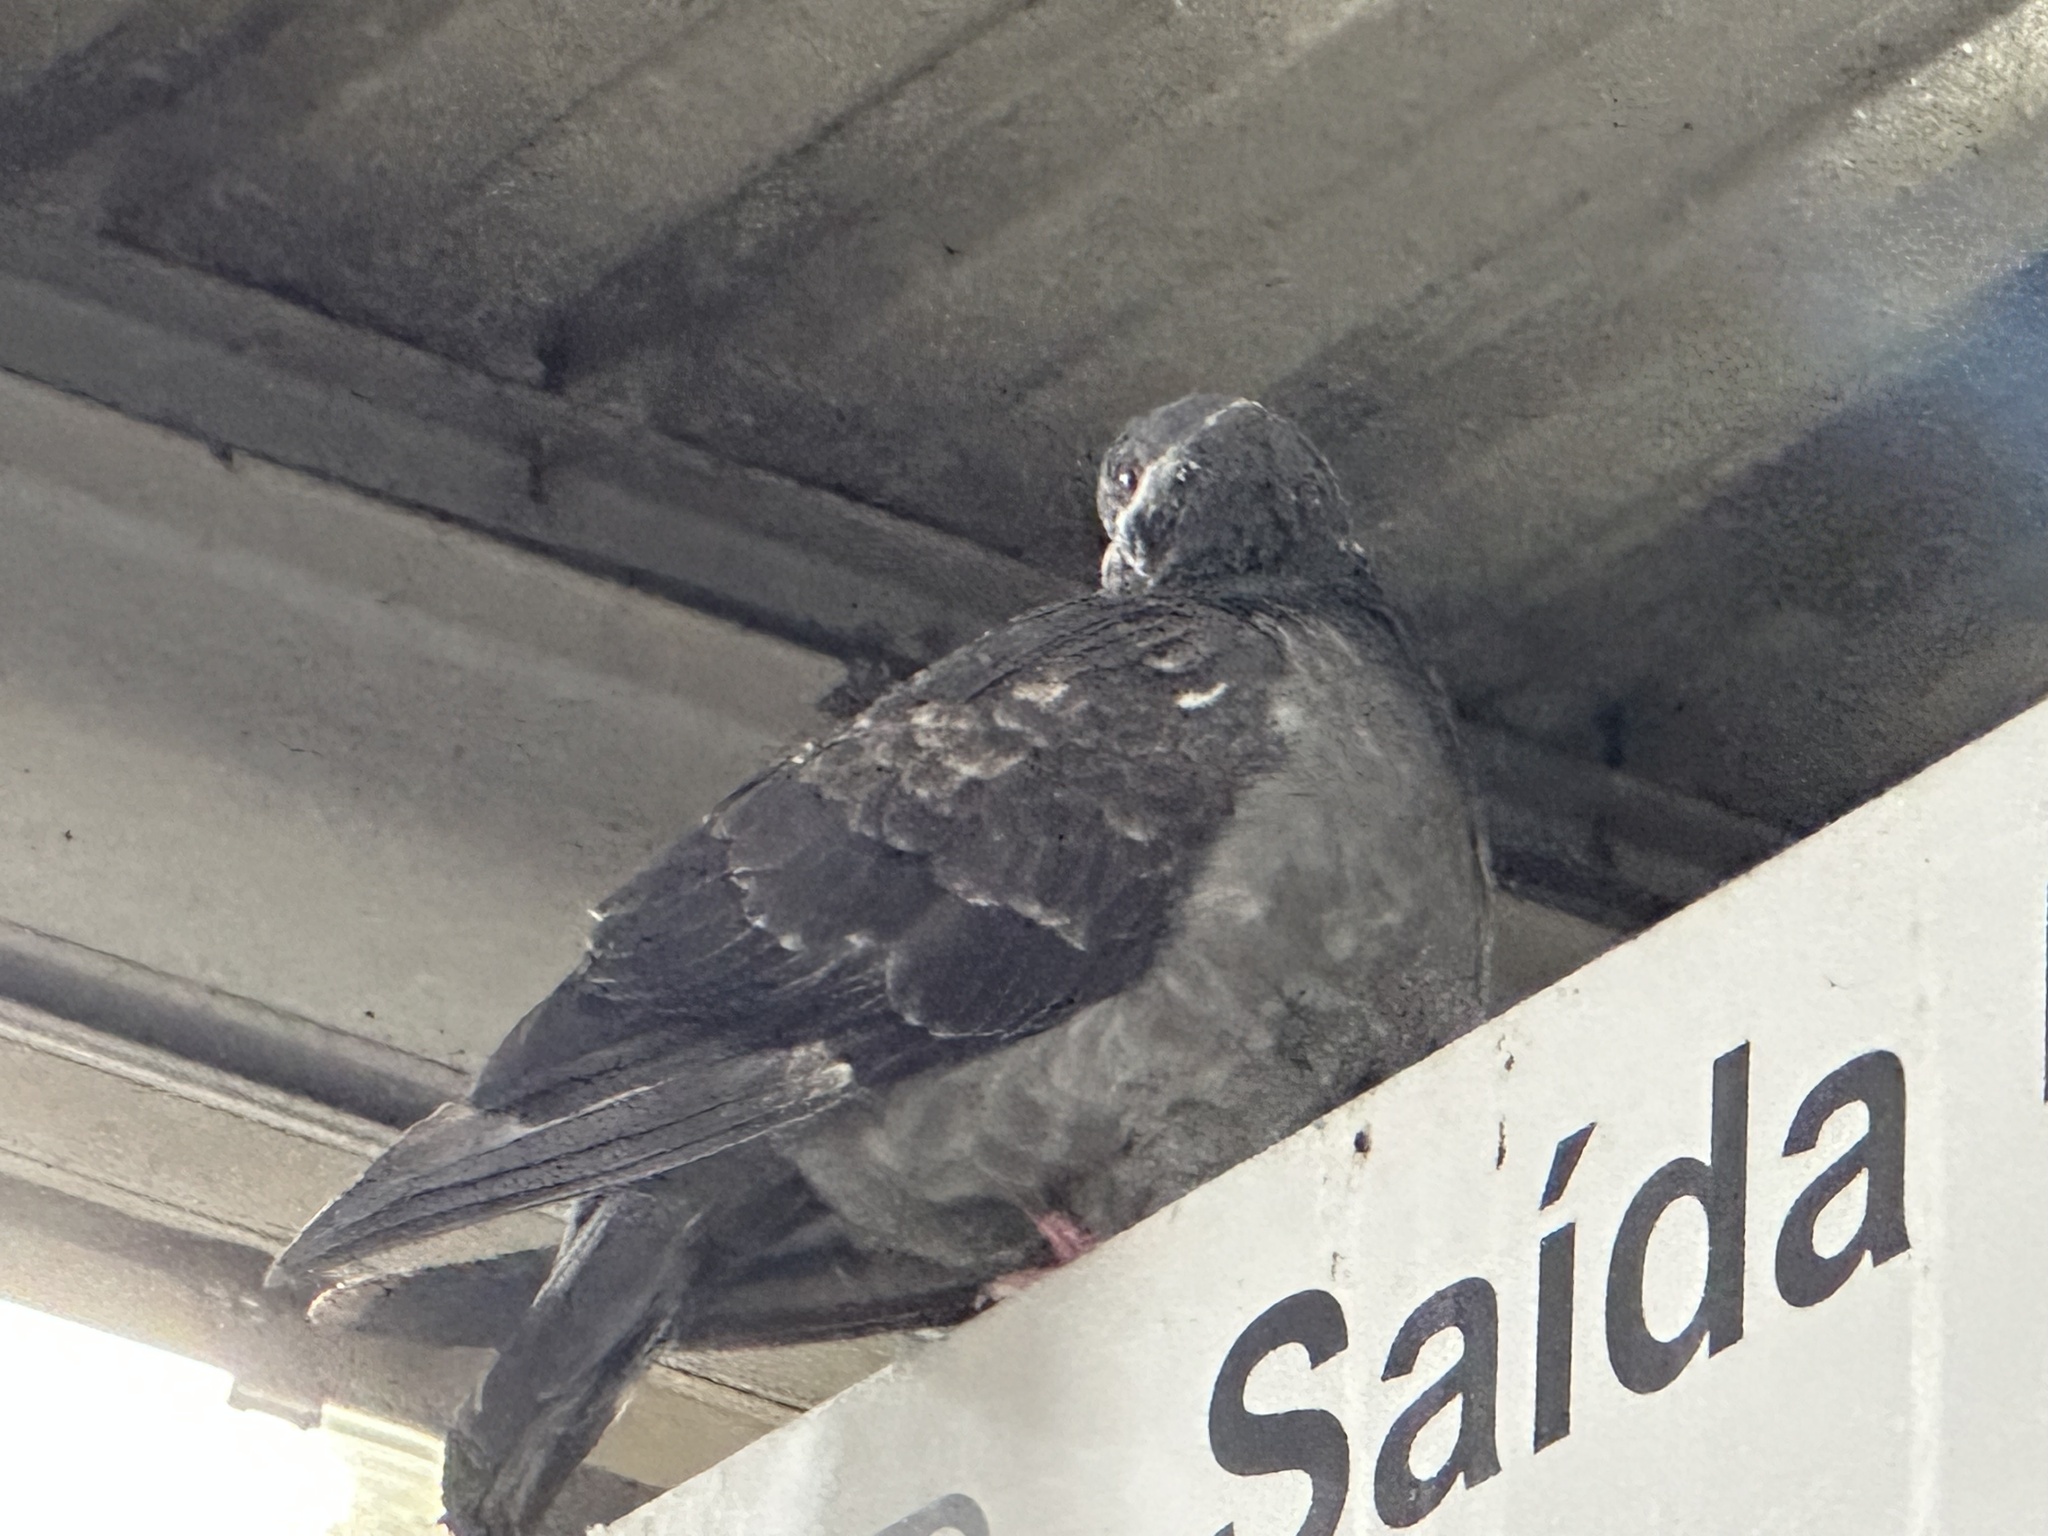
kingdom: Animalia
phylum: Chordata
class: Aves
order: Columbiformes
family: Columbidae
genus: Columba
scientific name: Columba livia
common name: Rock pigeon
